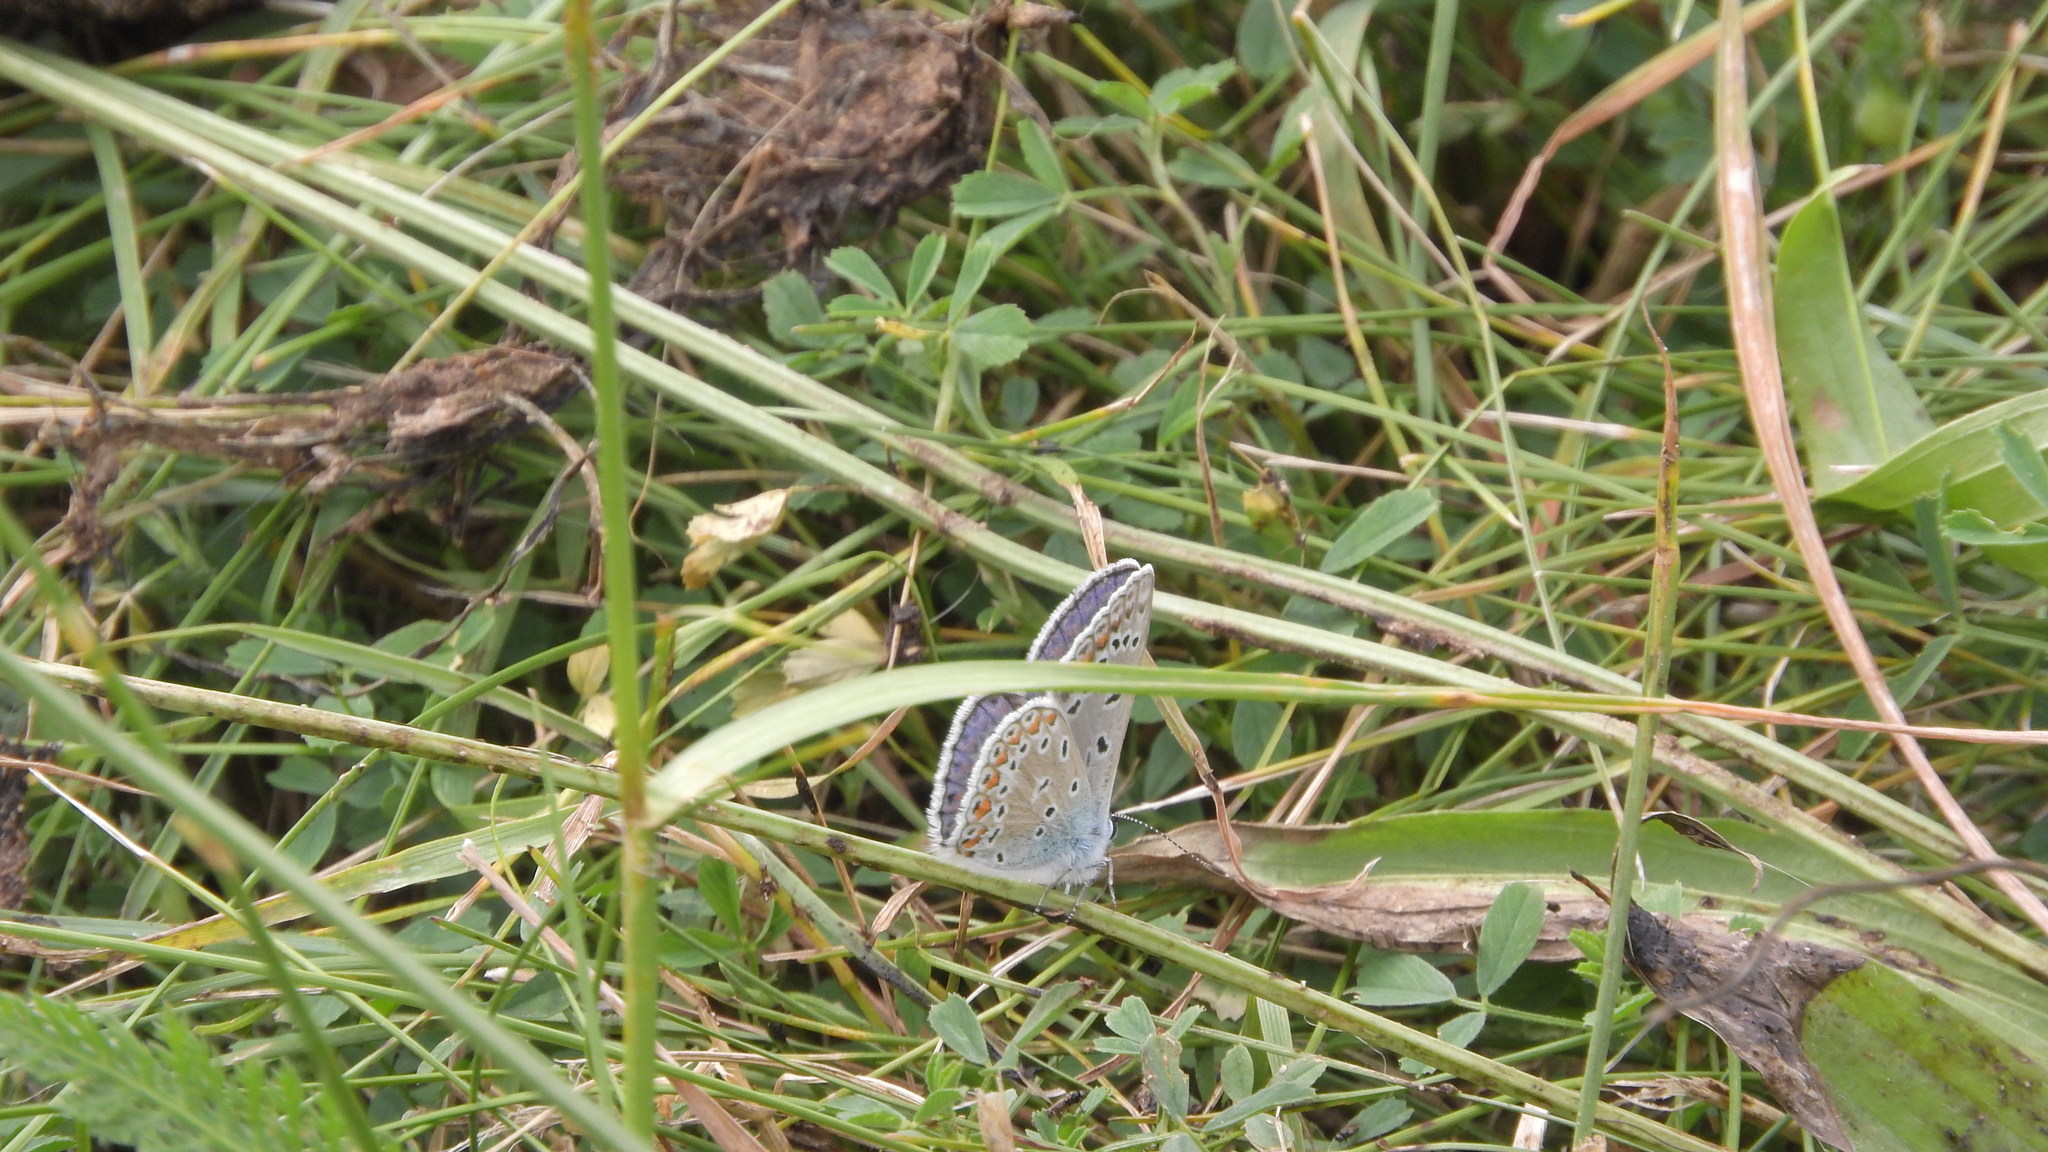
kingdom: Animalia
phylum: Arthropoda
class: Insecta
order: Lepidoptera
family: Lycaenidae
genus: Polyommatus
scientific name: Polyommatus icarus
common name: Common blue
